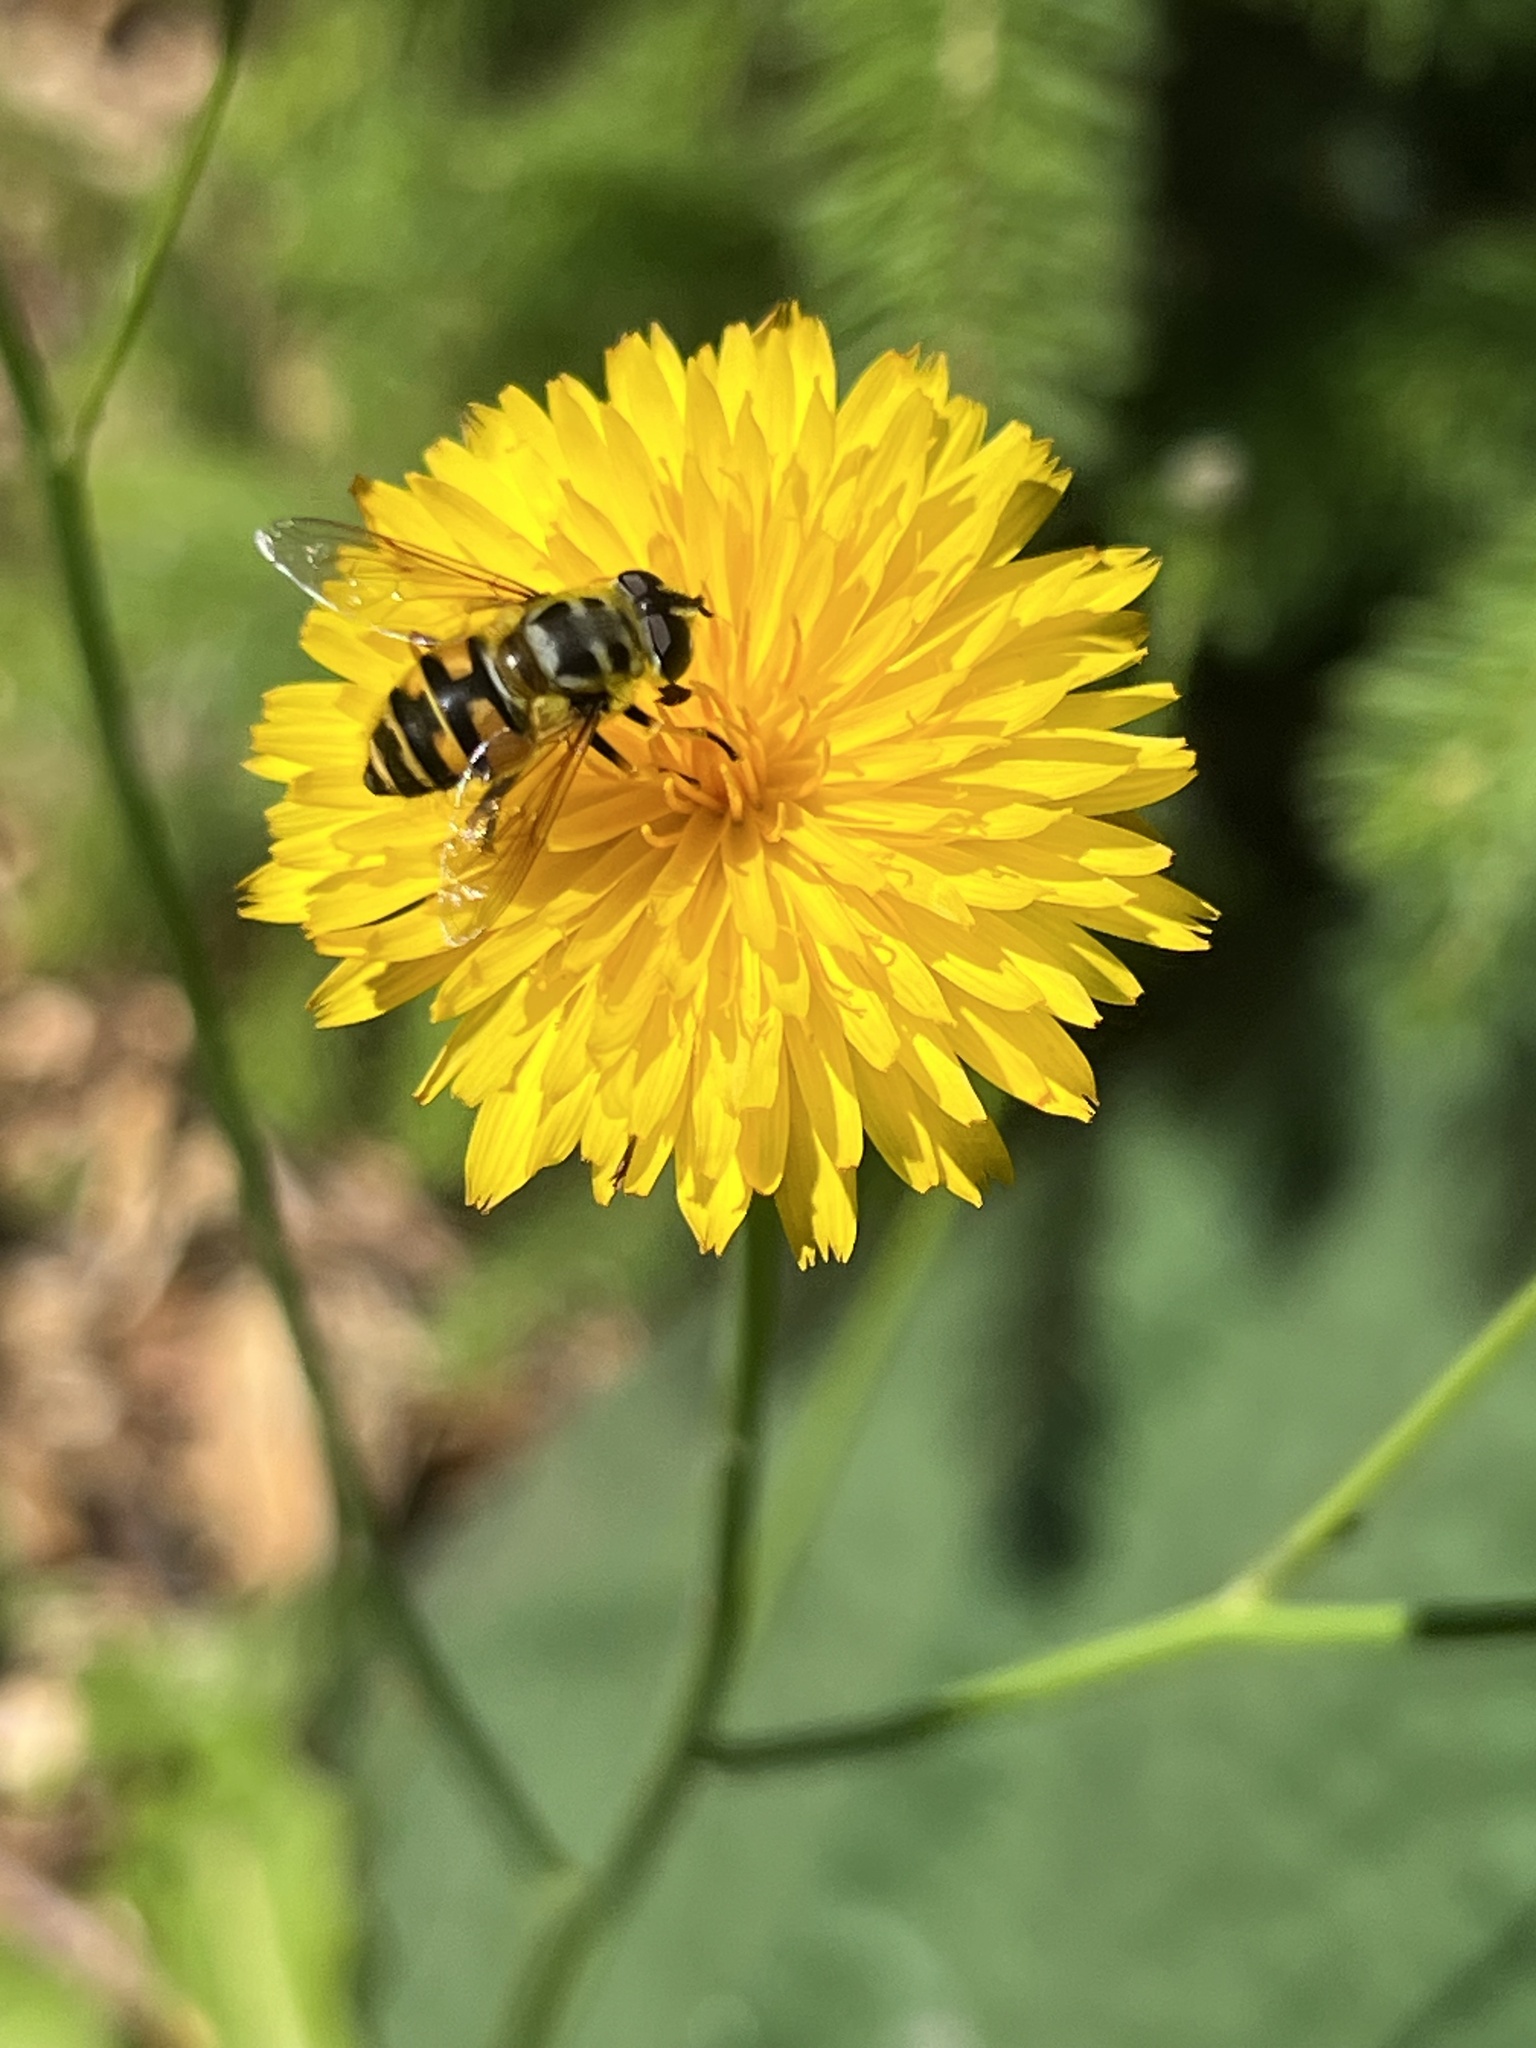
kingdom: Animalia
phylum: Arthropoda
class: Insecta
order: Diptera
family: Syrphidae
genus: Myathropa
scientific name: Myathropa florea
